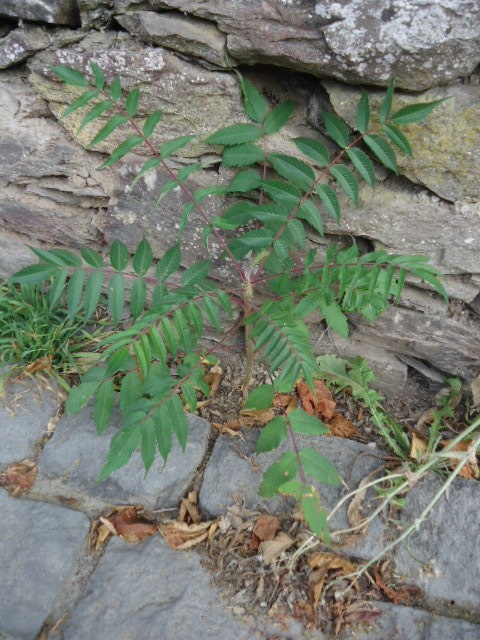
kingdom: Plantae
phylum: Tracheophyta
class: Magnoliopsida
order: Sapindales
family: Anacardiaceae
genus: Rhus
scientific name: Rhus typhina
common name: Staghorn sumac
